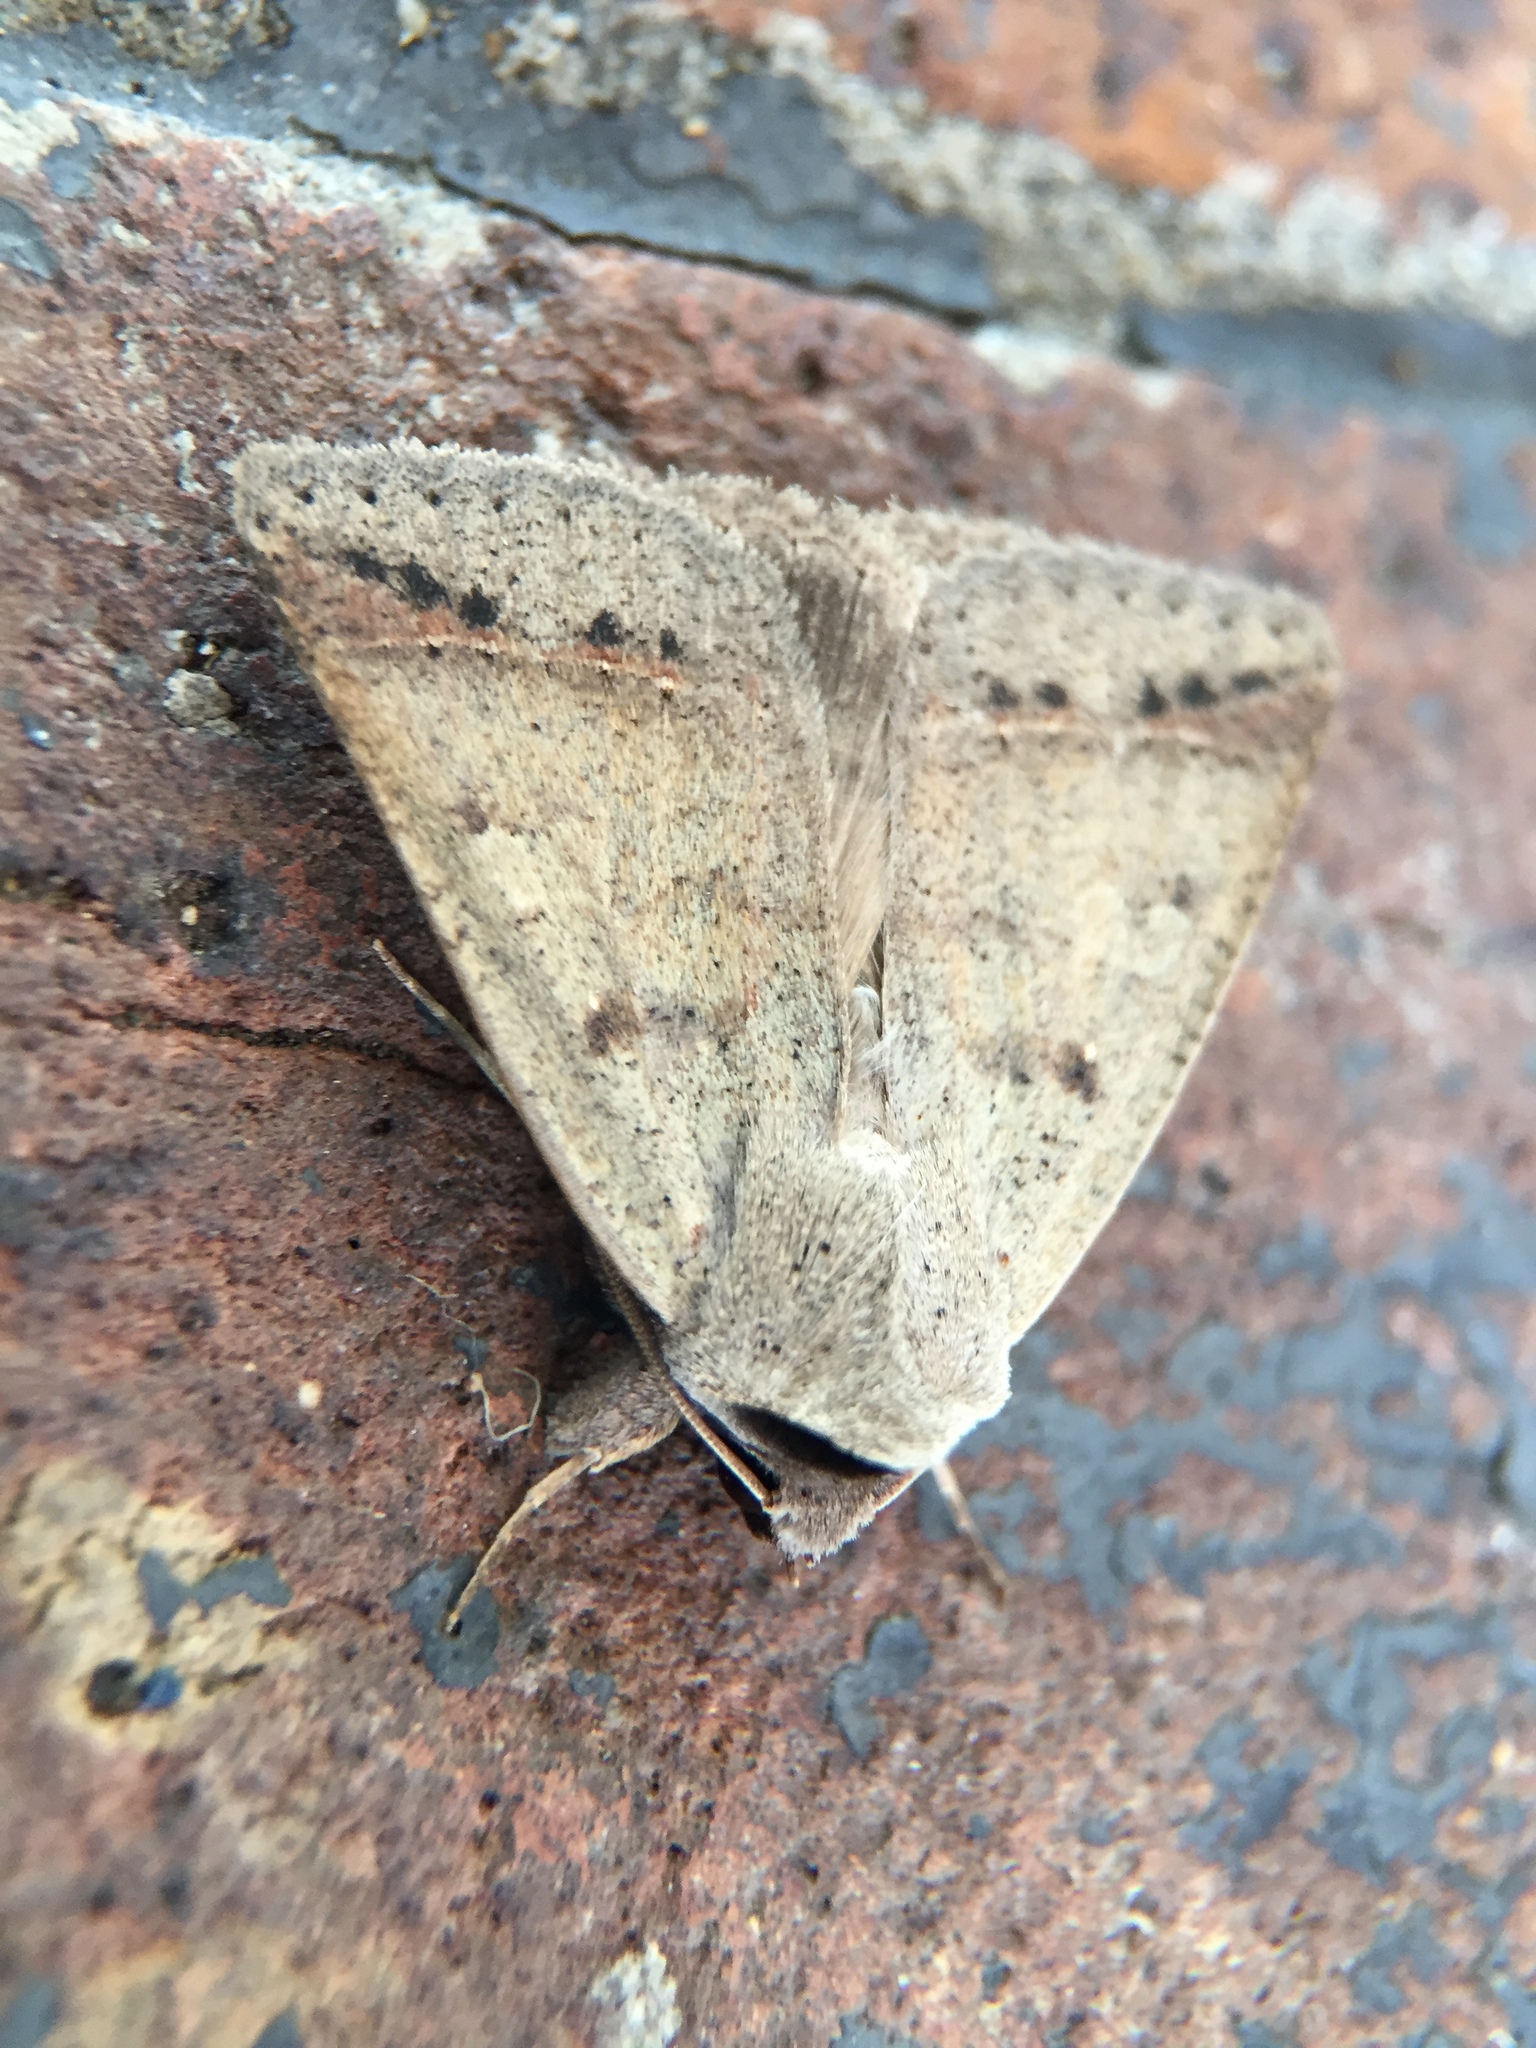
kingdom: Animalia
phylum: Arthropoda
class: Insecta
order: Lepidoptera
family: Erebidae
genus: Pantydia
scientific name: Pantydia sparsa
